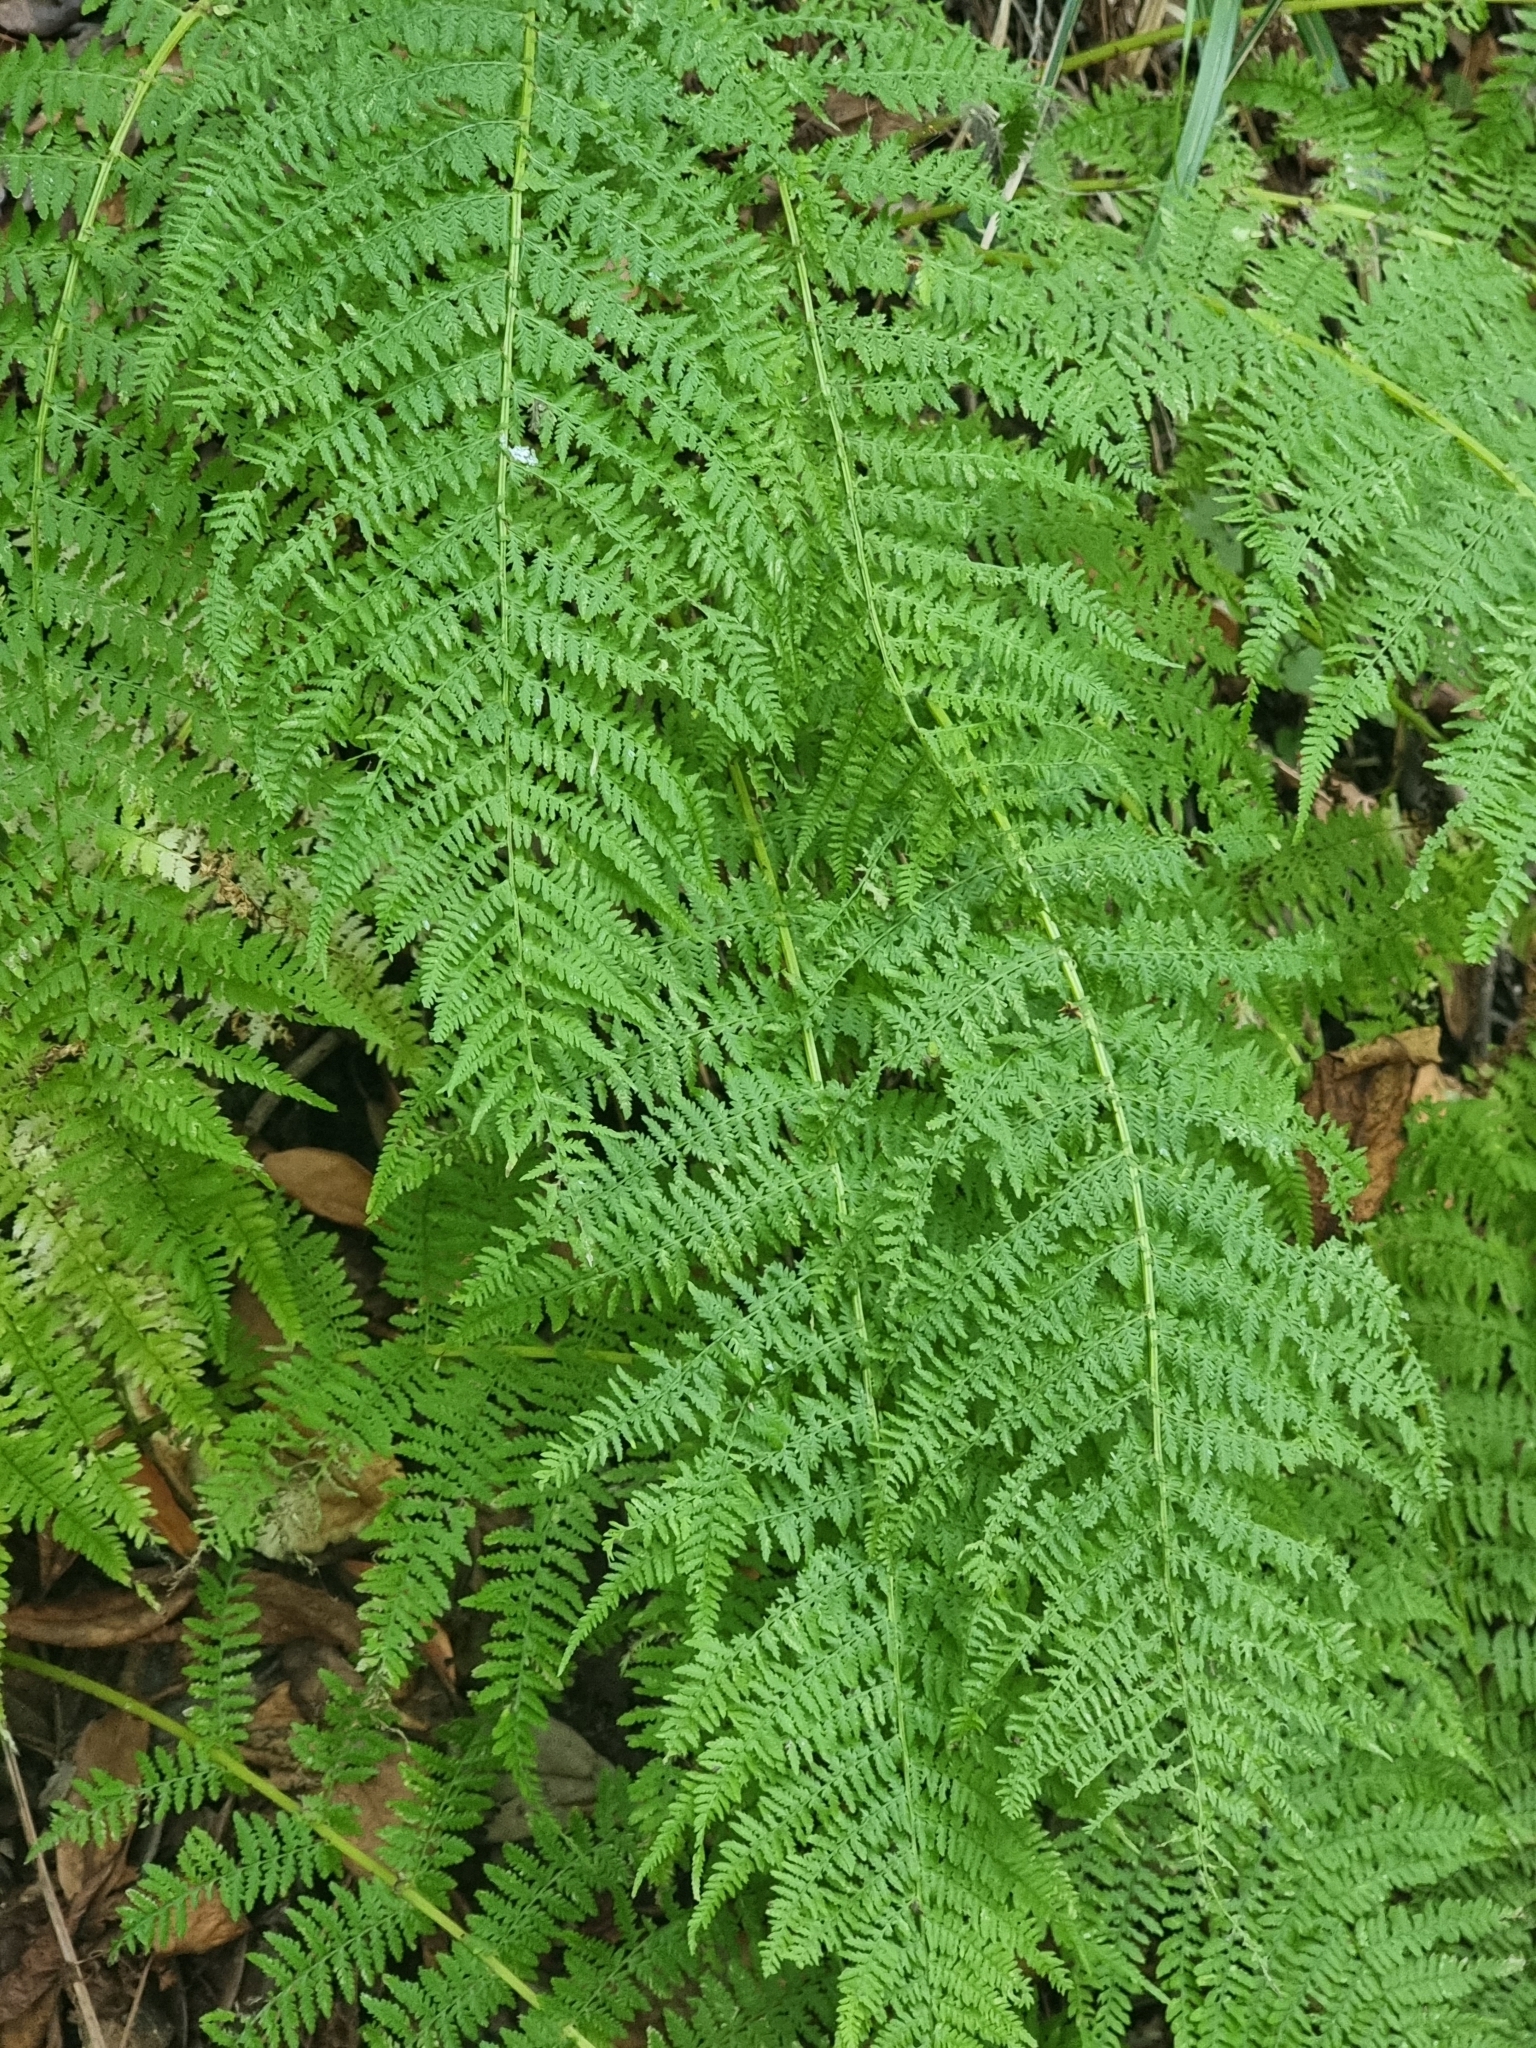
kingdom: Plantae
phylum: Tracheophyta
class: Polypodiopsida
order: Polypodiales
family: Athyriaceae
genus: Athyrium
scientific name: Athyrium filix-femina
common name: Lady fern
